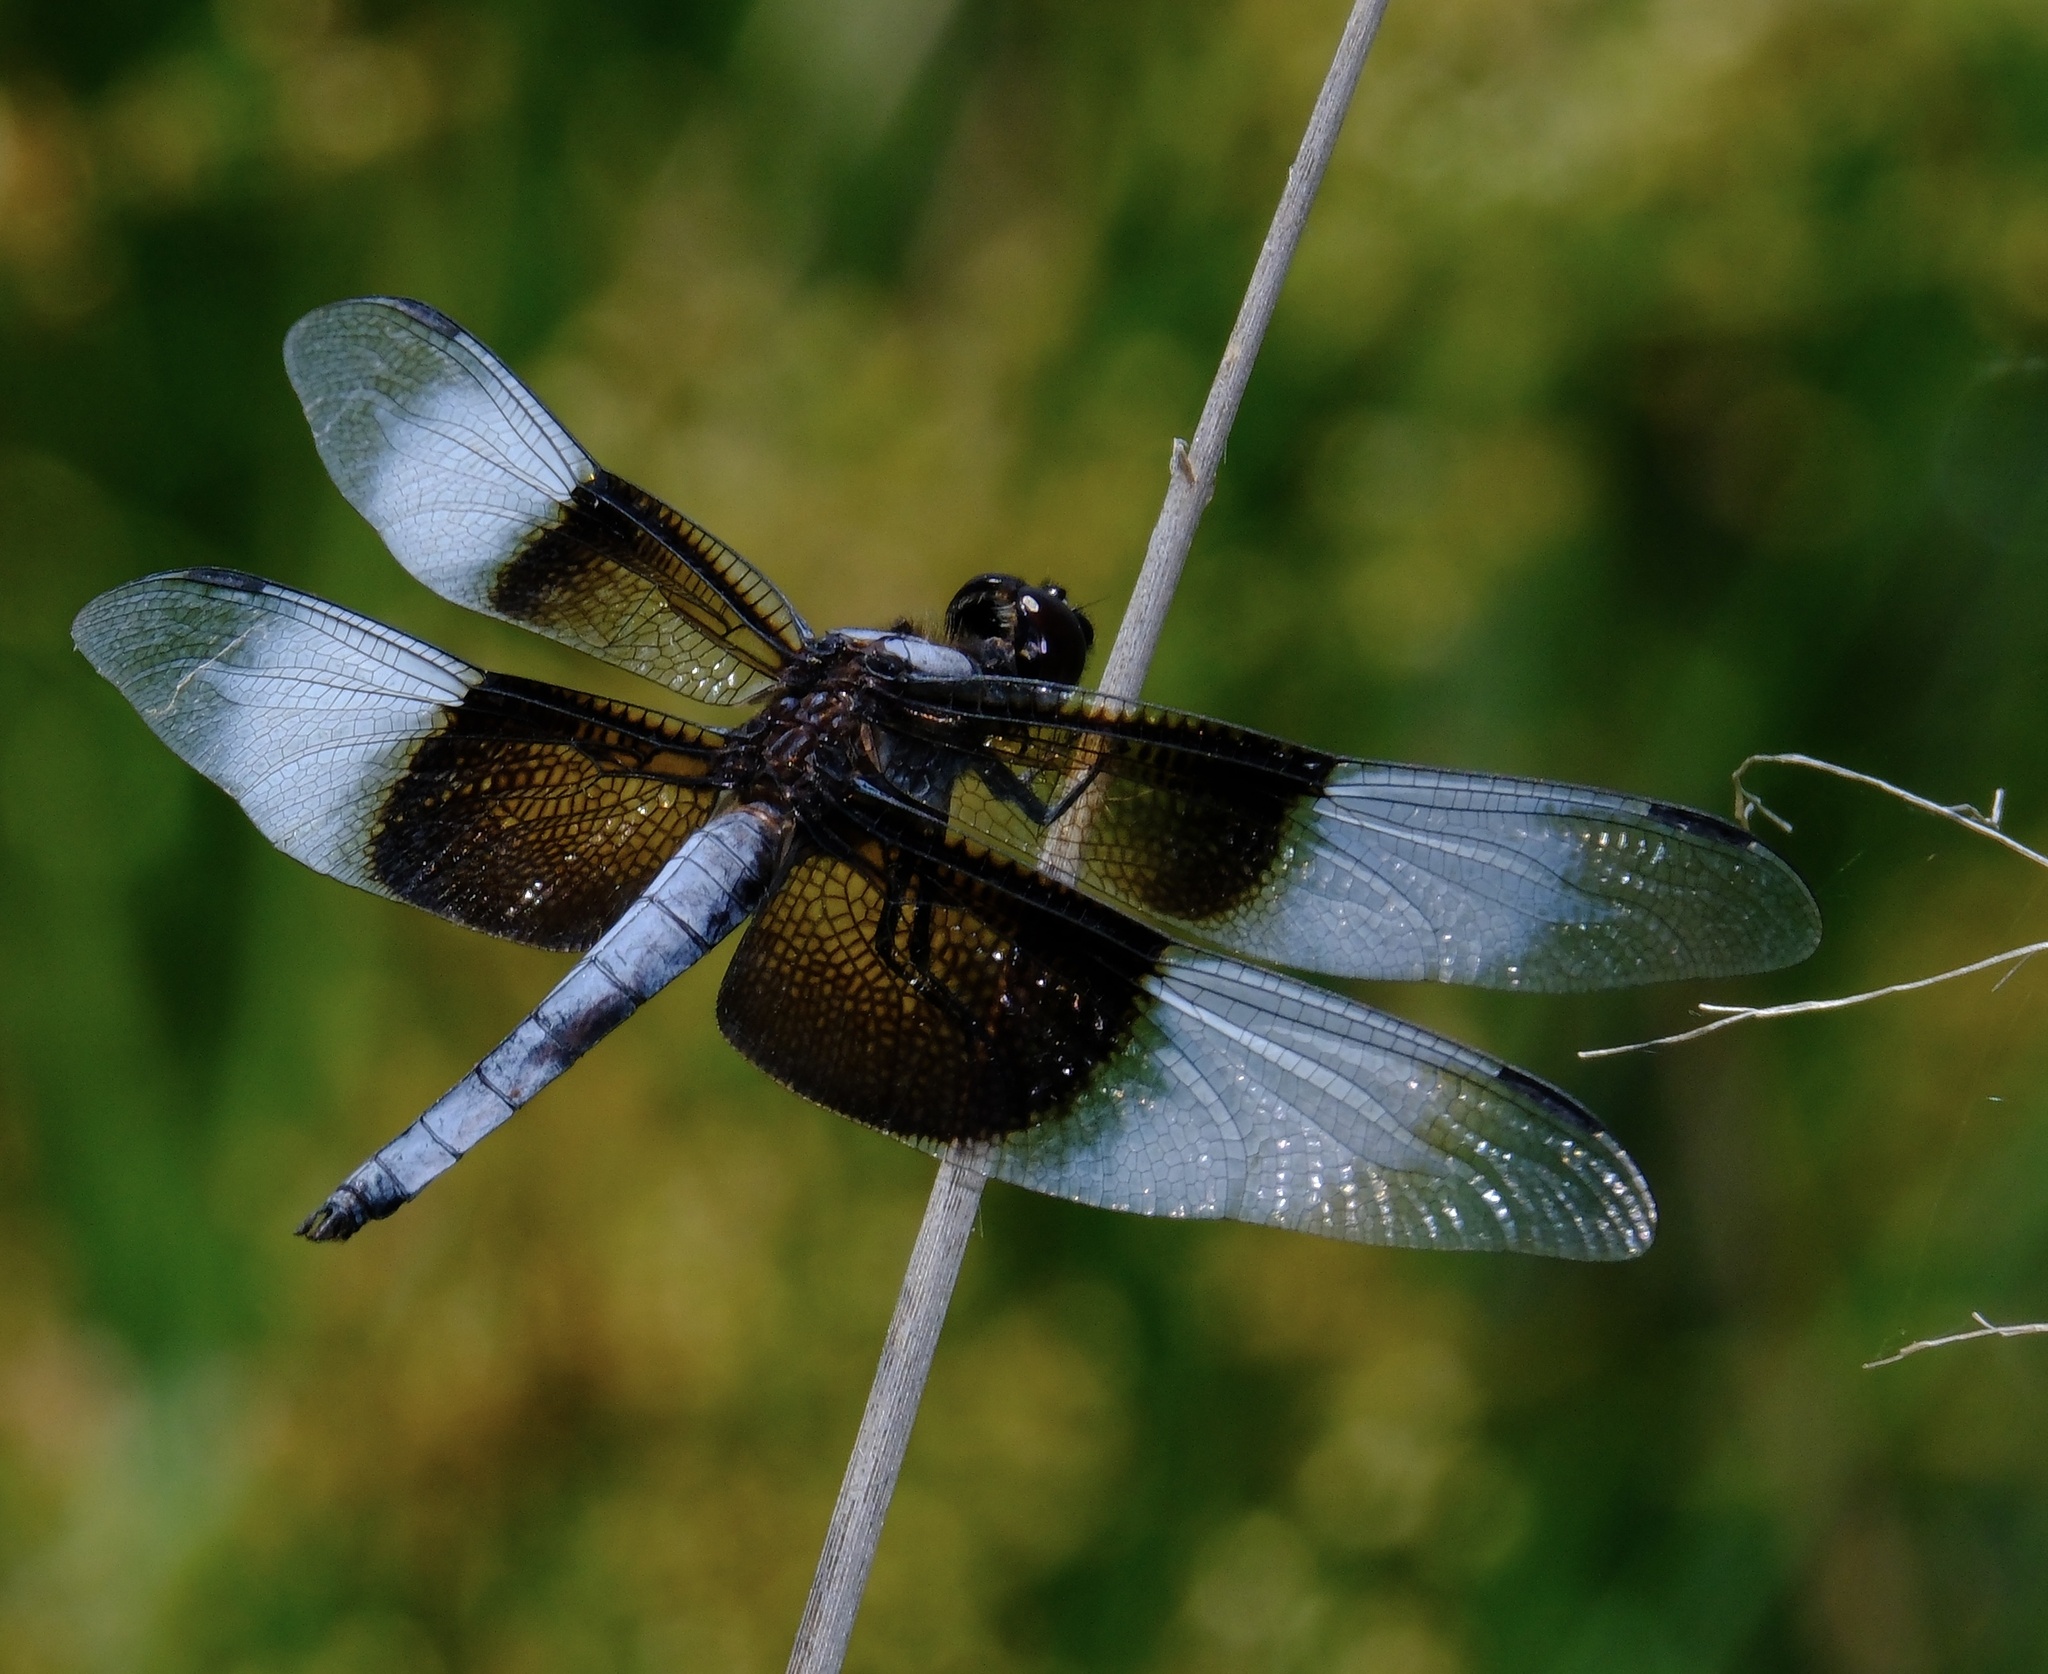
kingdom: Animalia
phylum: Arthropoda
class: Insecta
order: Odonata
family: Libellulidae
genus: Libellula
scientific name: Libellula luctuosa
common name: Widow skimmer
